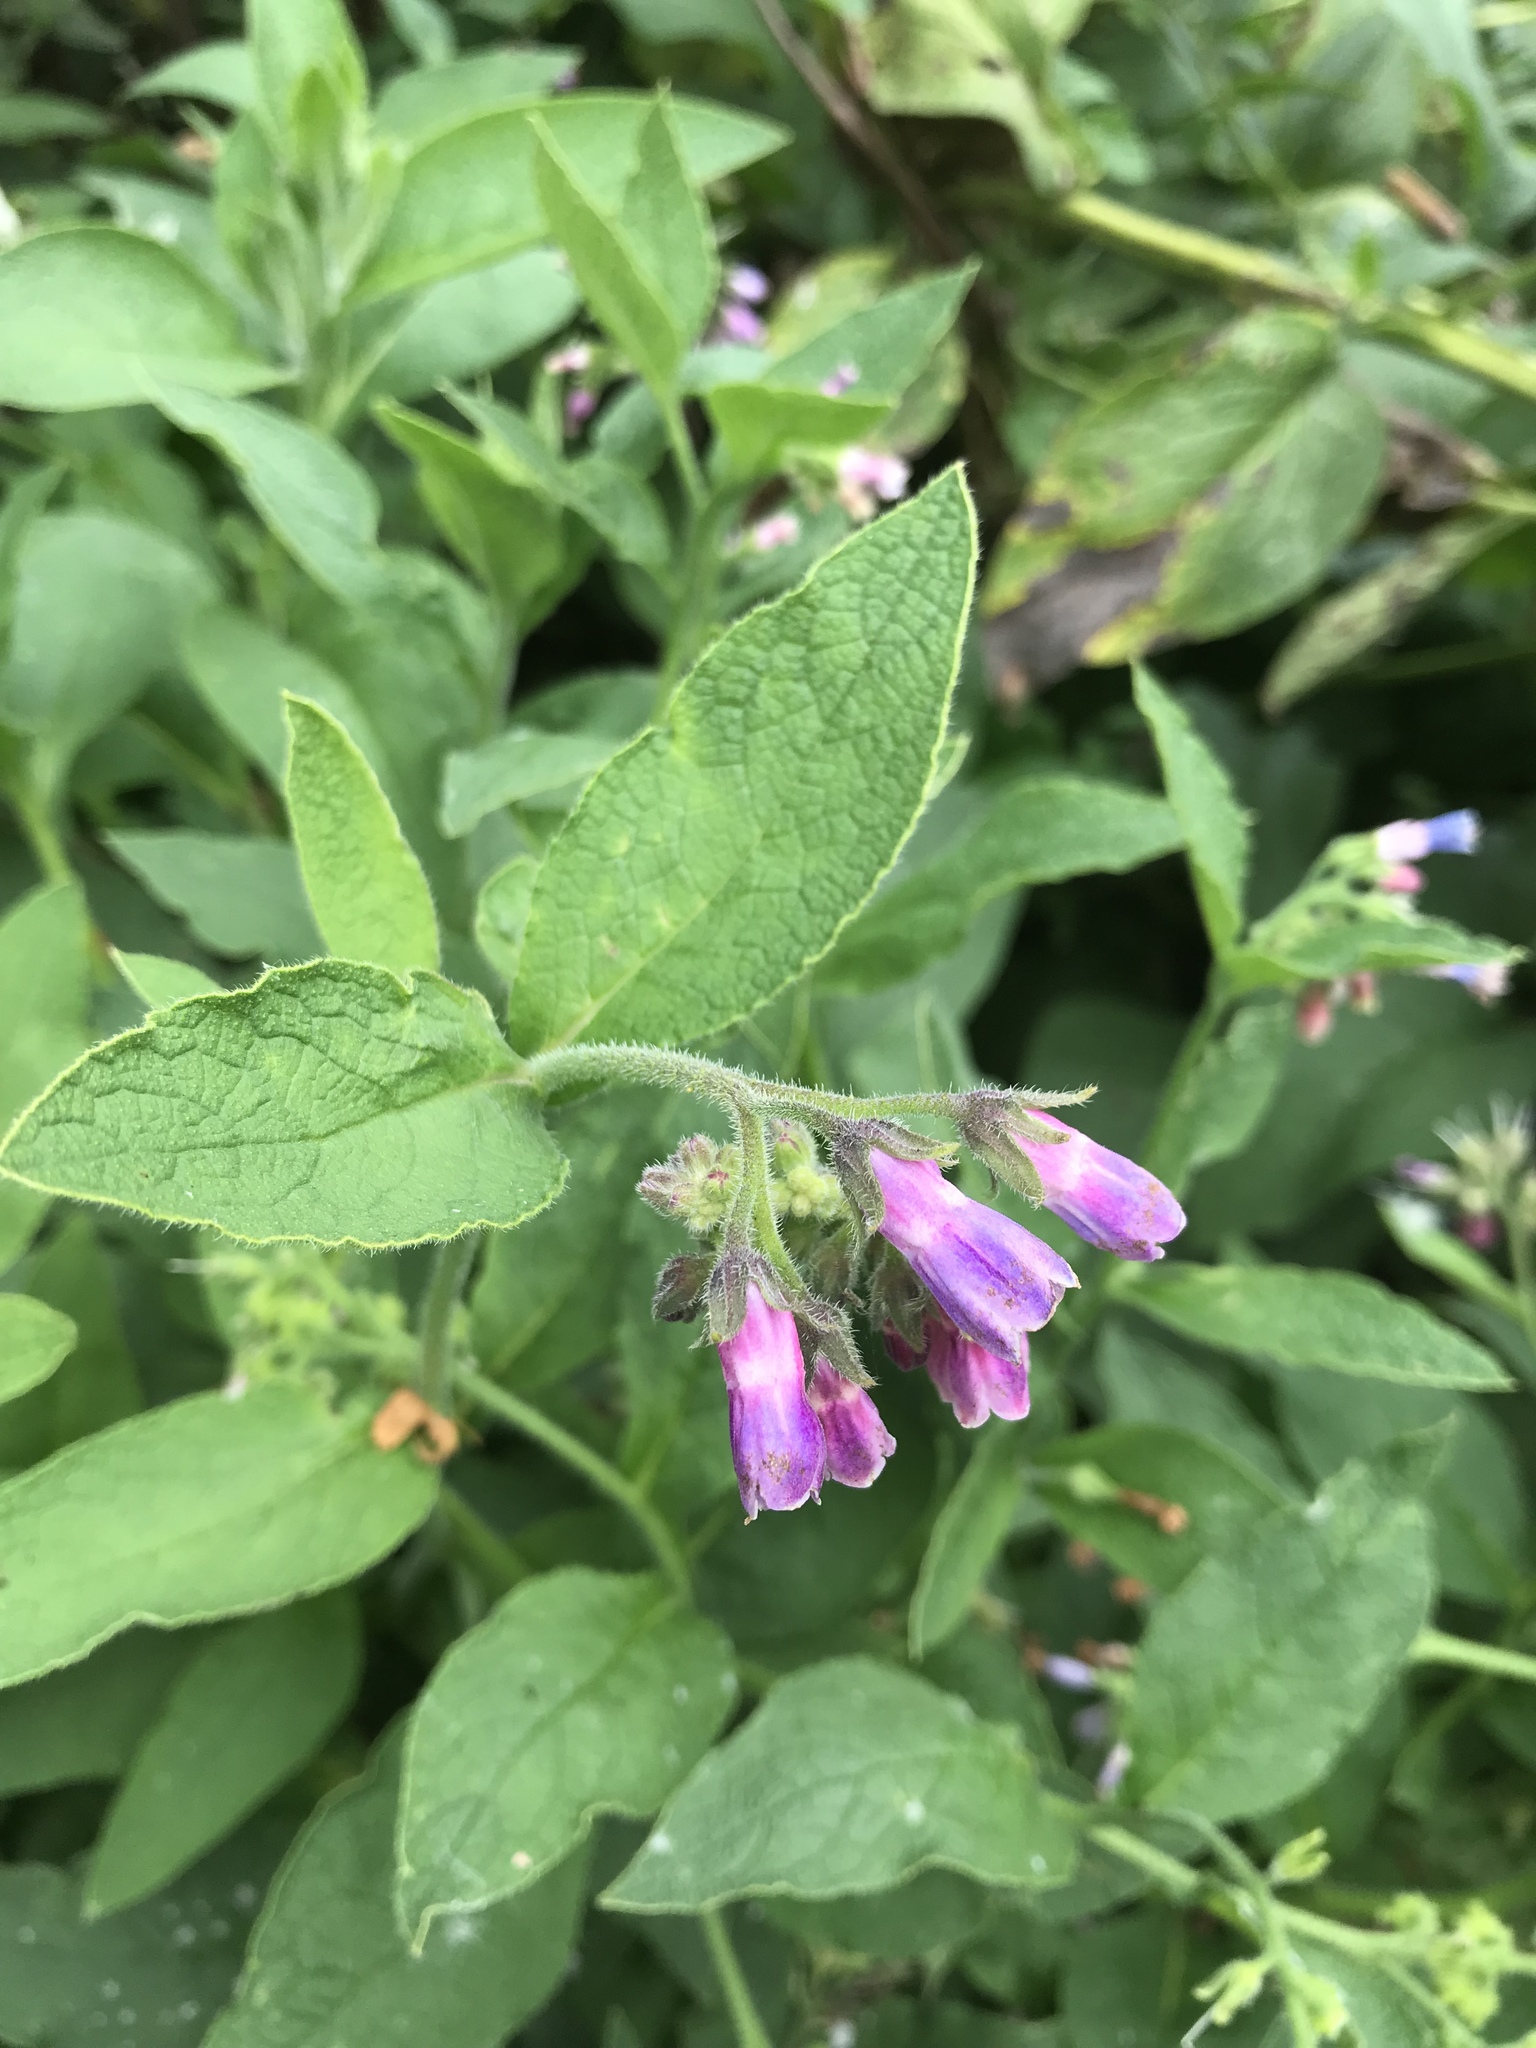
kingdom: Plantae
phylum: Tracheophyta
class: Magnoliopsida
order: Boraginales
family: Boraginaceae
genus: Symphytum
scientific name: Symphytum uplandicum
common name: Russian comfrey
